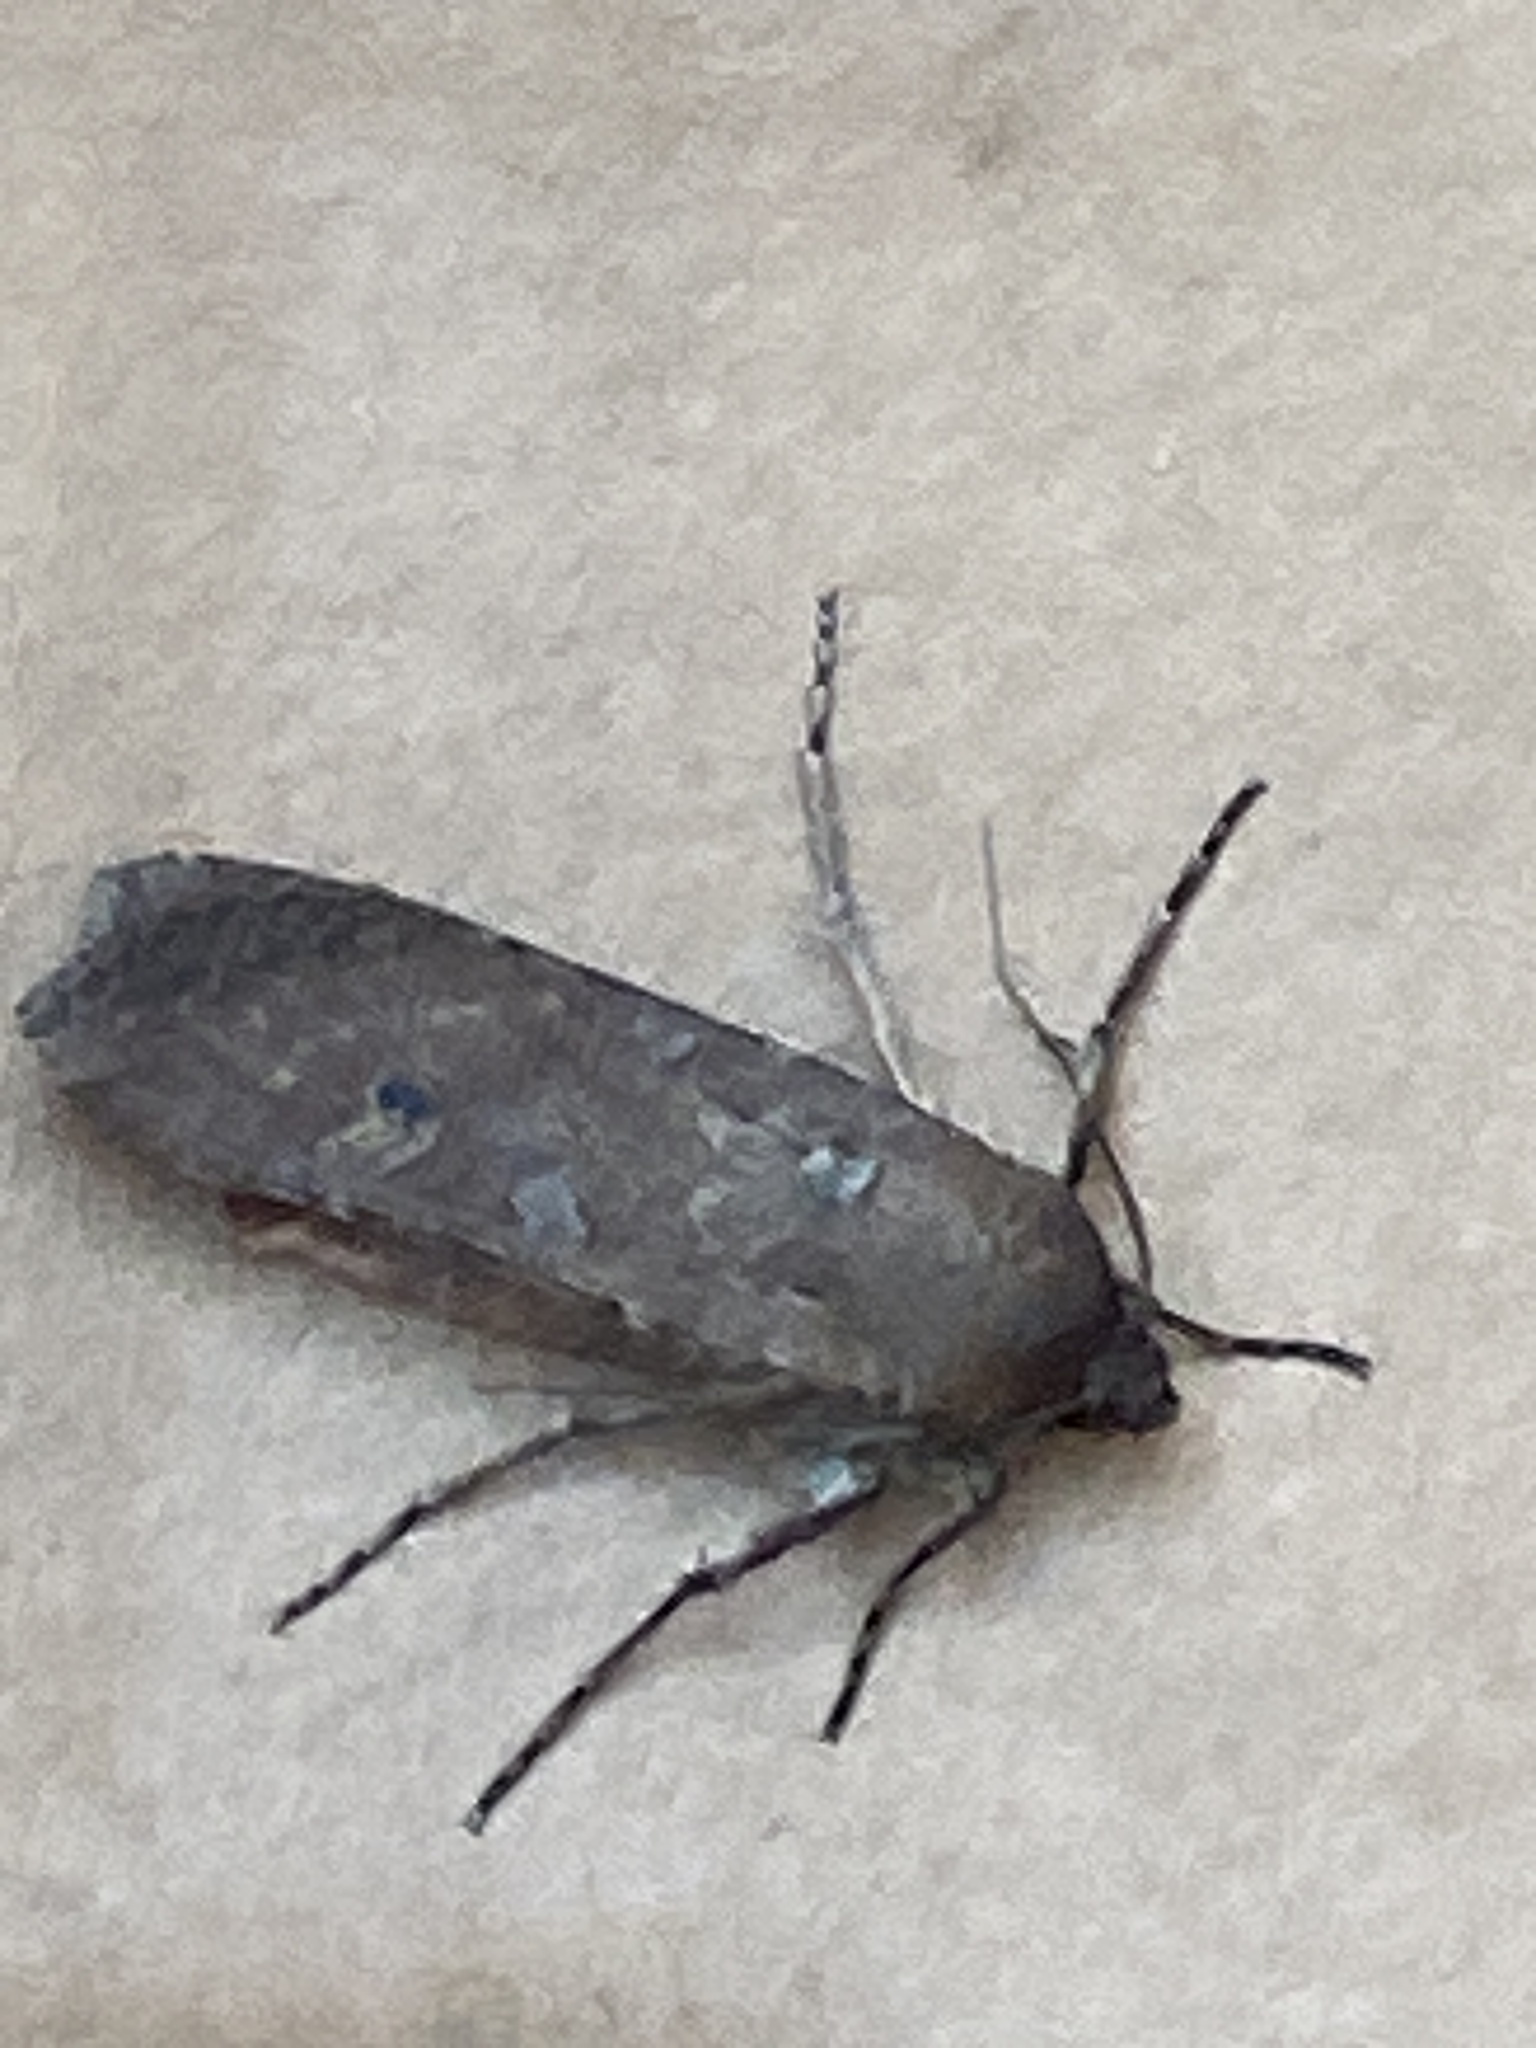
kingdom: Animalia
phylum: Arthropoda
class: Insecta
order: Lepidoptera
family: Noctuidae
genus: Peridroma
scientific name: Peridroma saucia
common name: Pearly underwing
